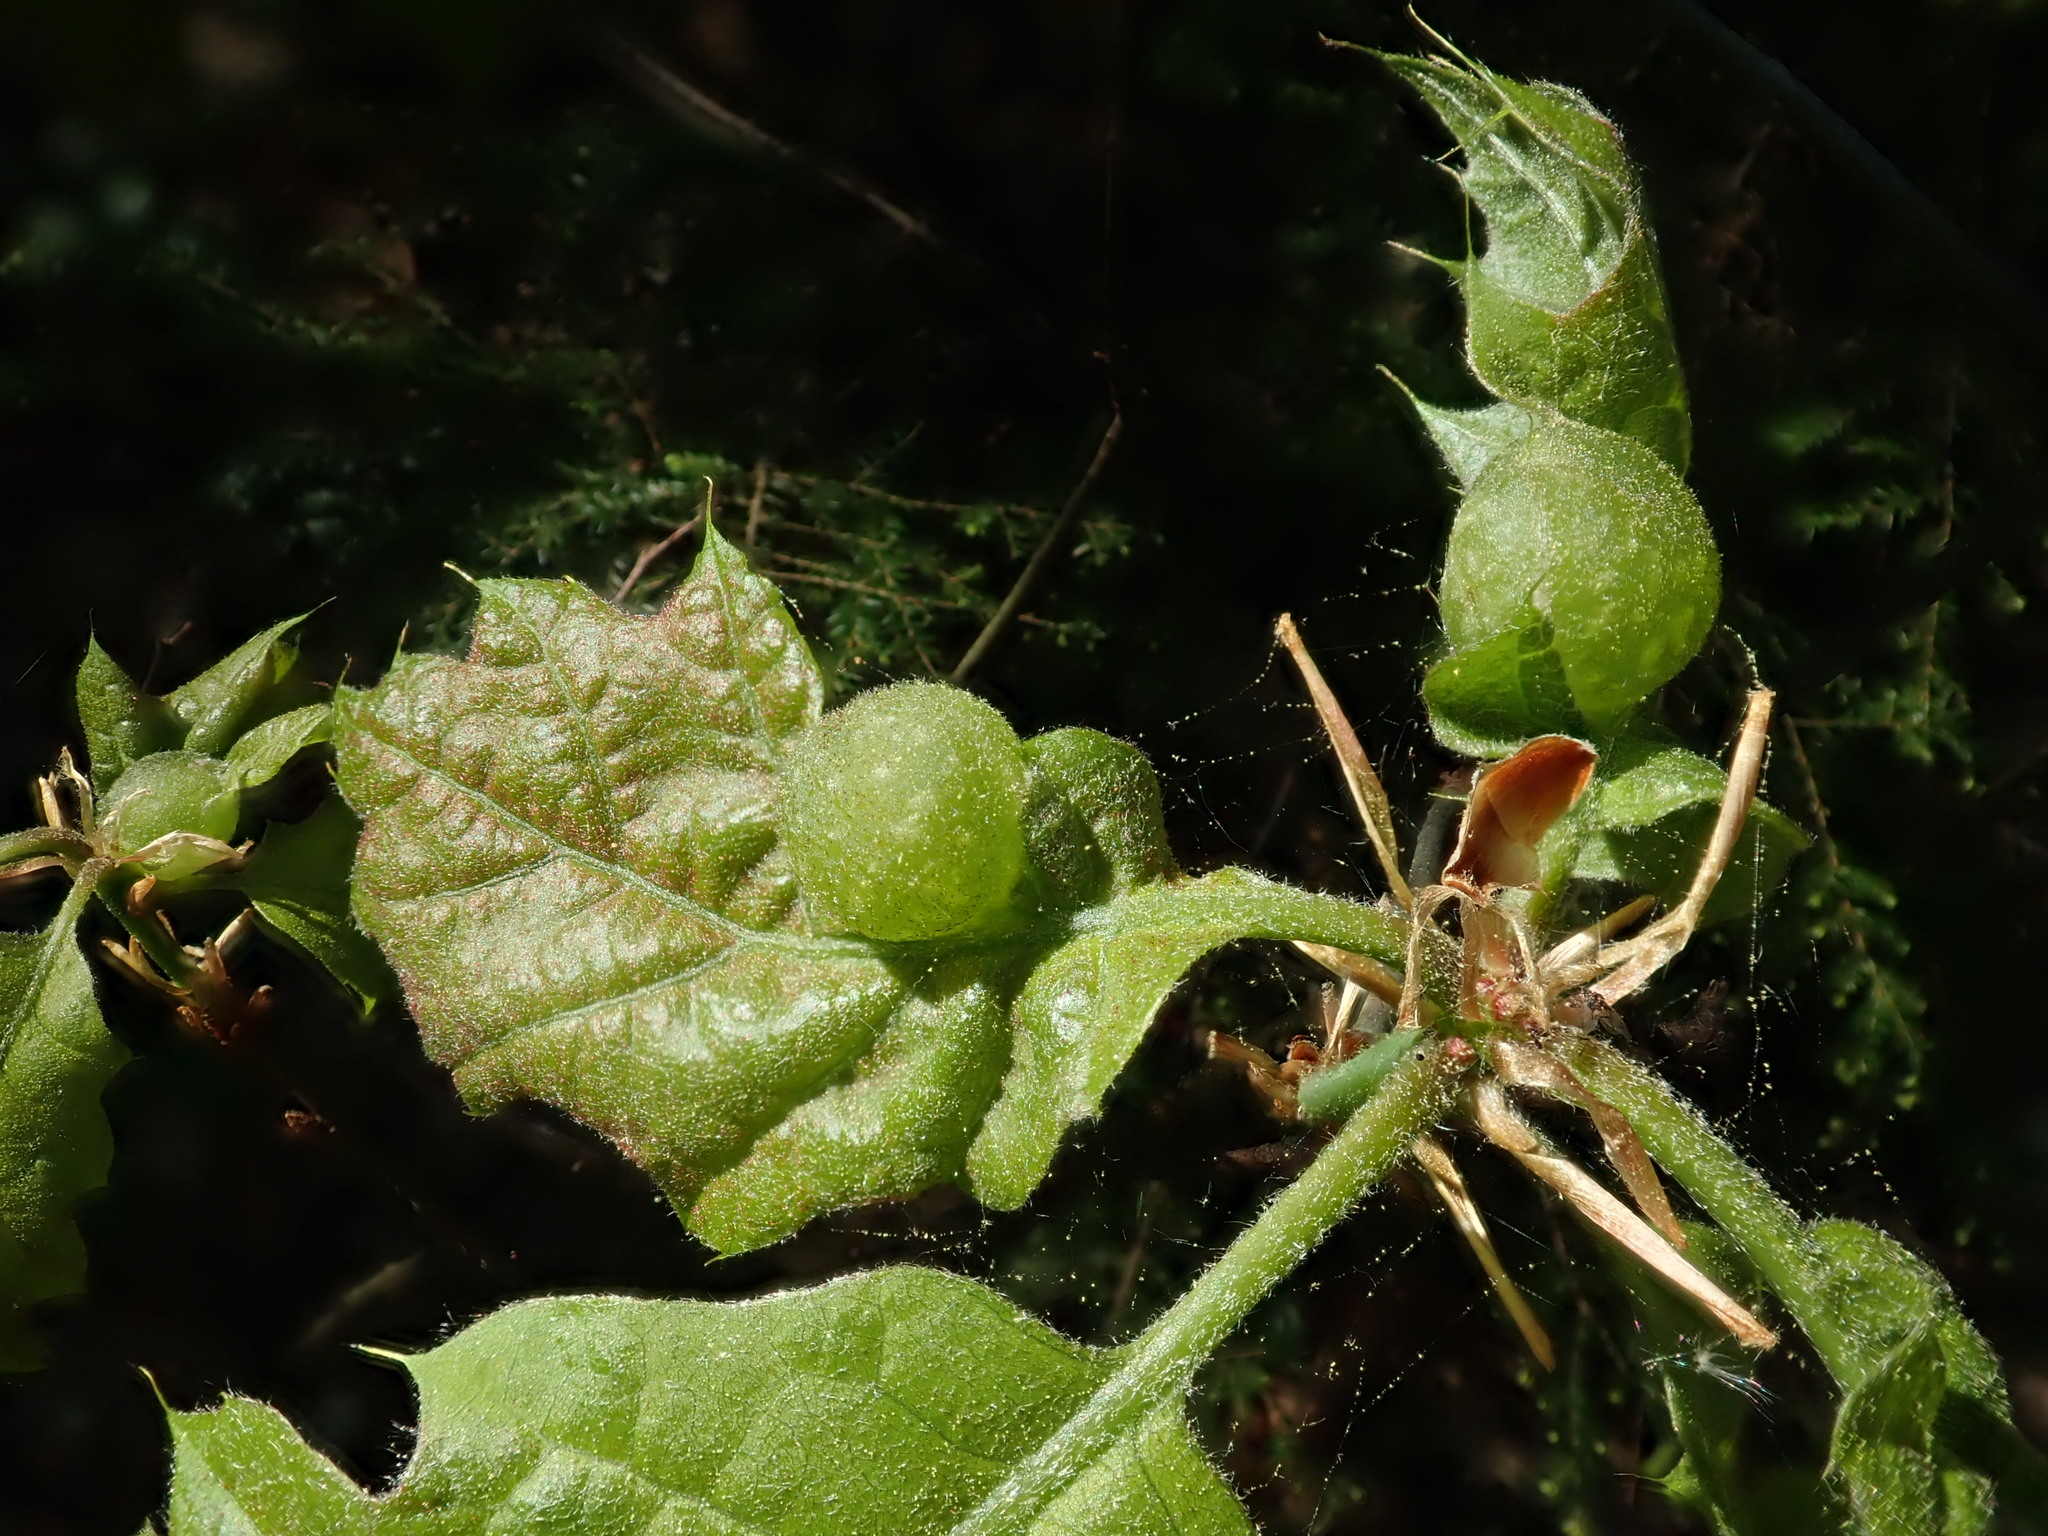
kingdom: Animalia
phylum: Arthropoda
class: Insecta
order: Hymenoptera
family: Cynipidae
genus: Dryocosmus
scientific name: Dryocosmus quercuspalustris
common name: Succulent oak gall wasp
